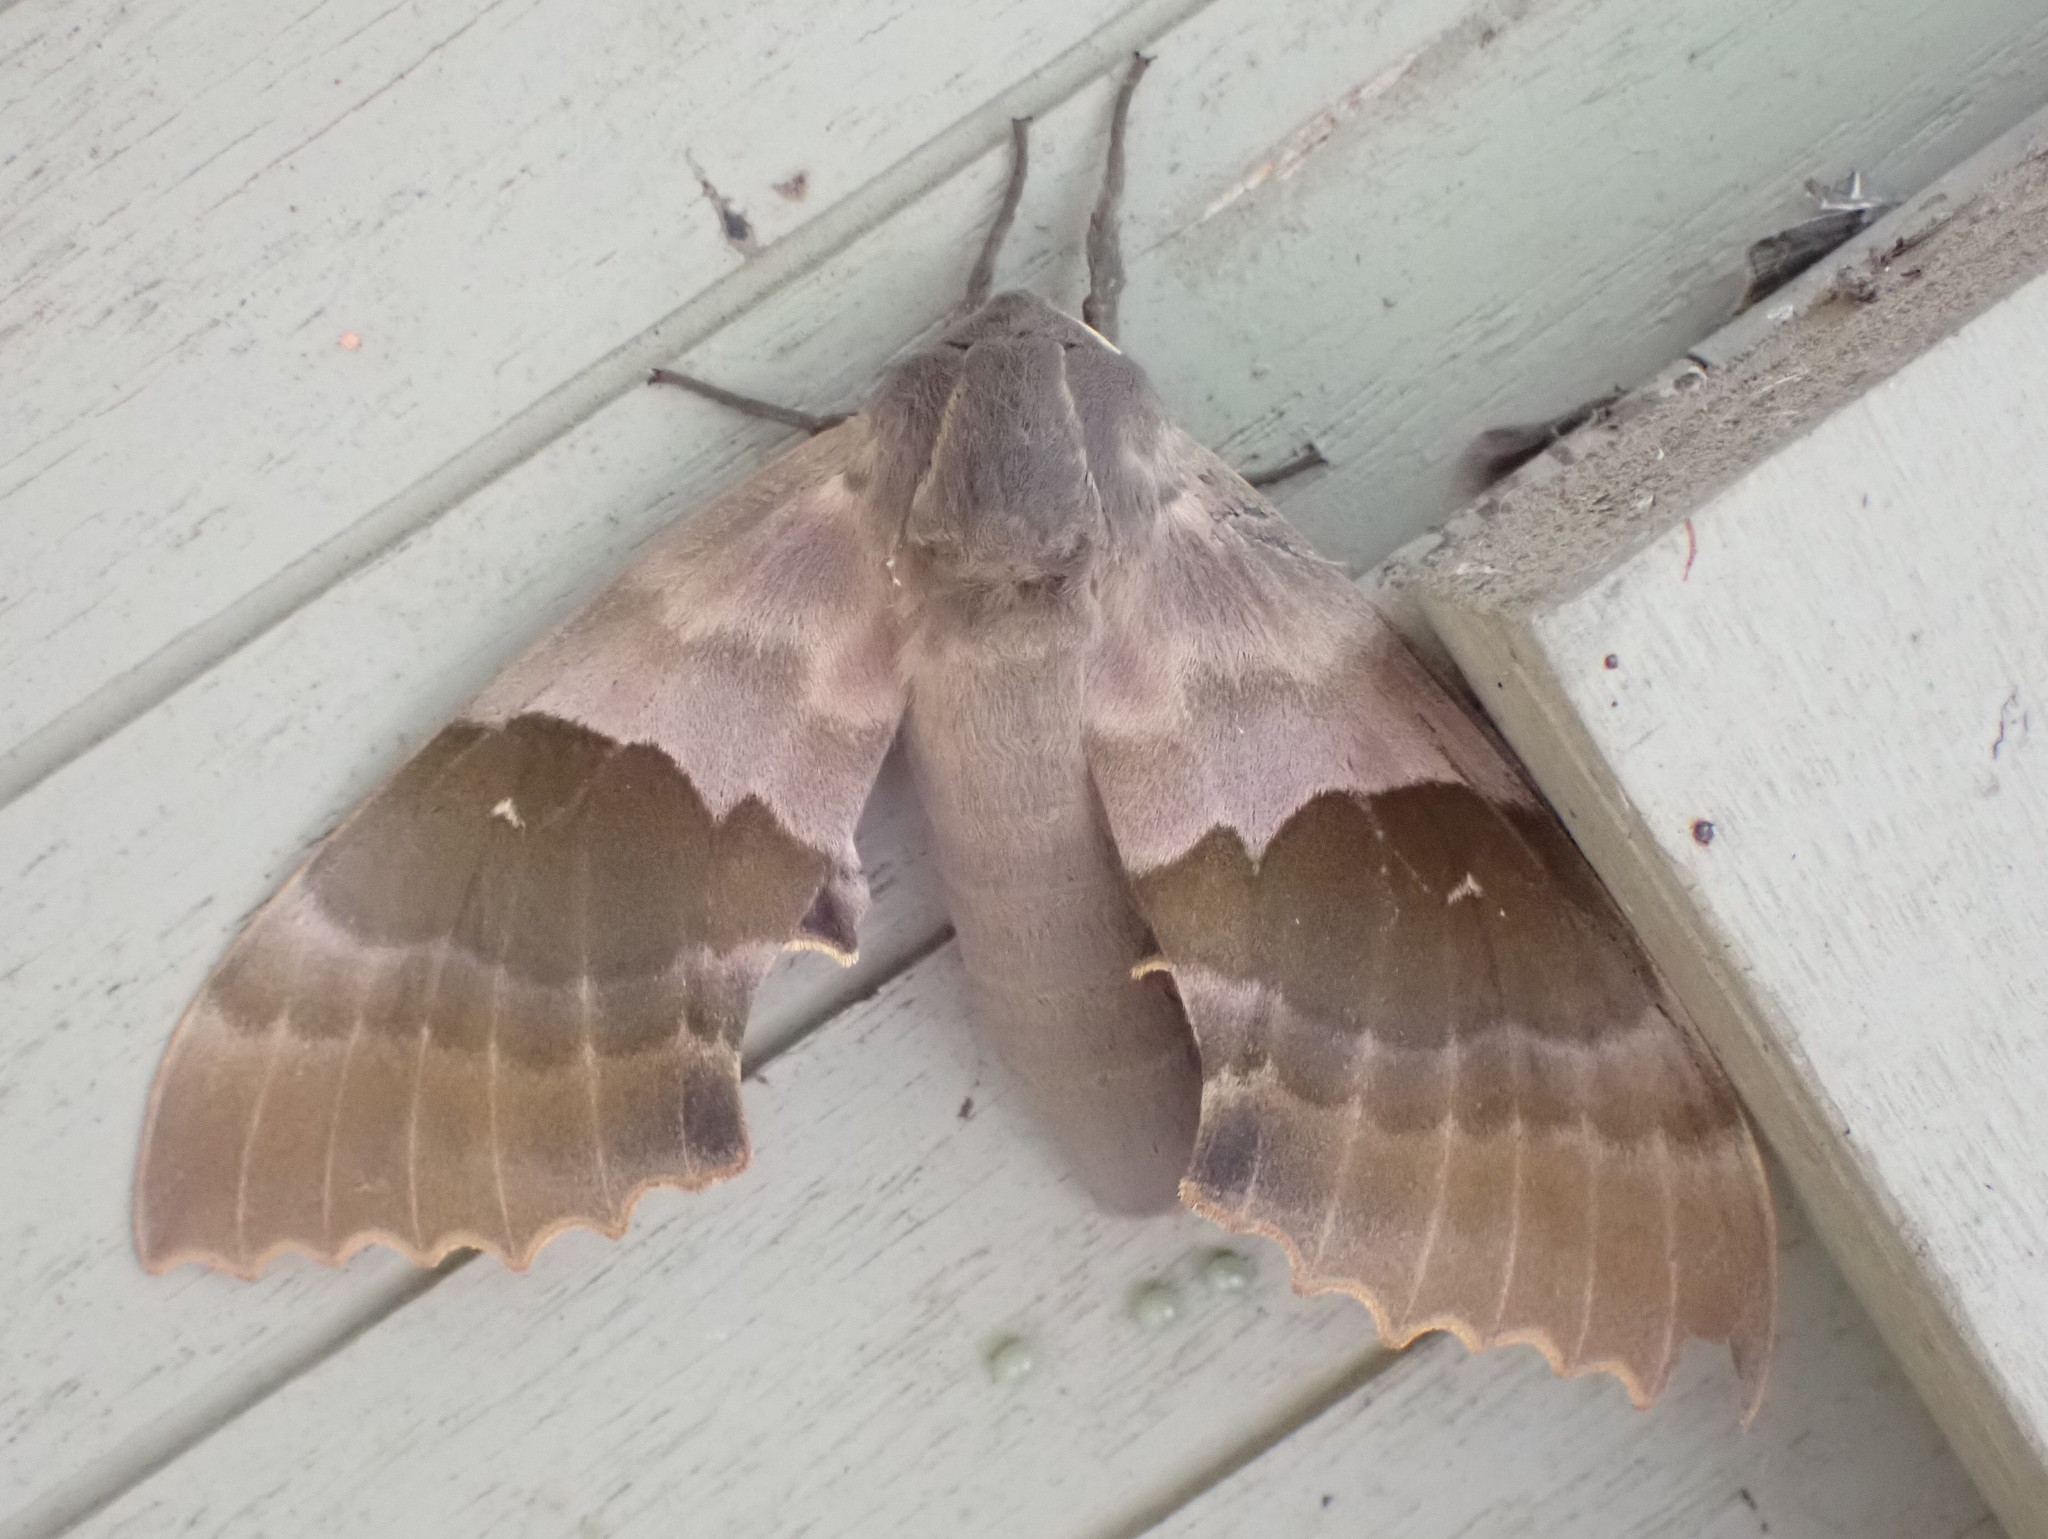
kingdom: Animalia
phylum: Arthropoda
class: Insecta
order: Lepidoptera
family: Sphingidae
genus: Pachysphinx
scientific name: Pachysphinx modesta
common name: Big poplar sphinx
